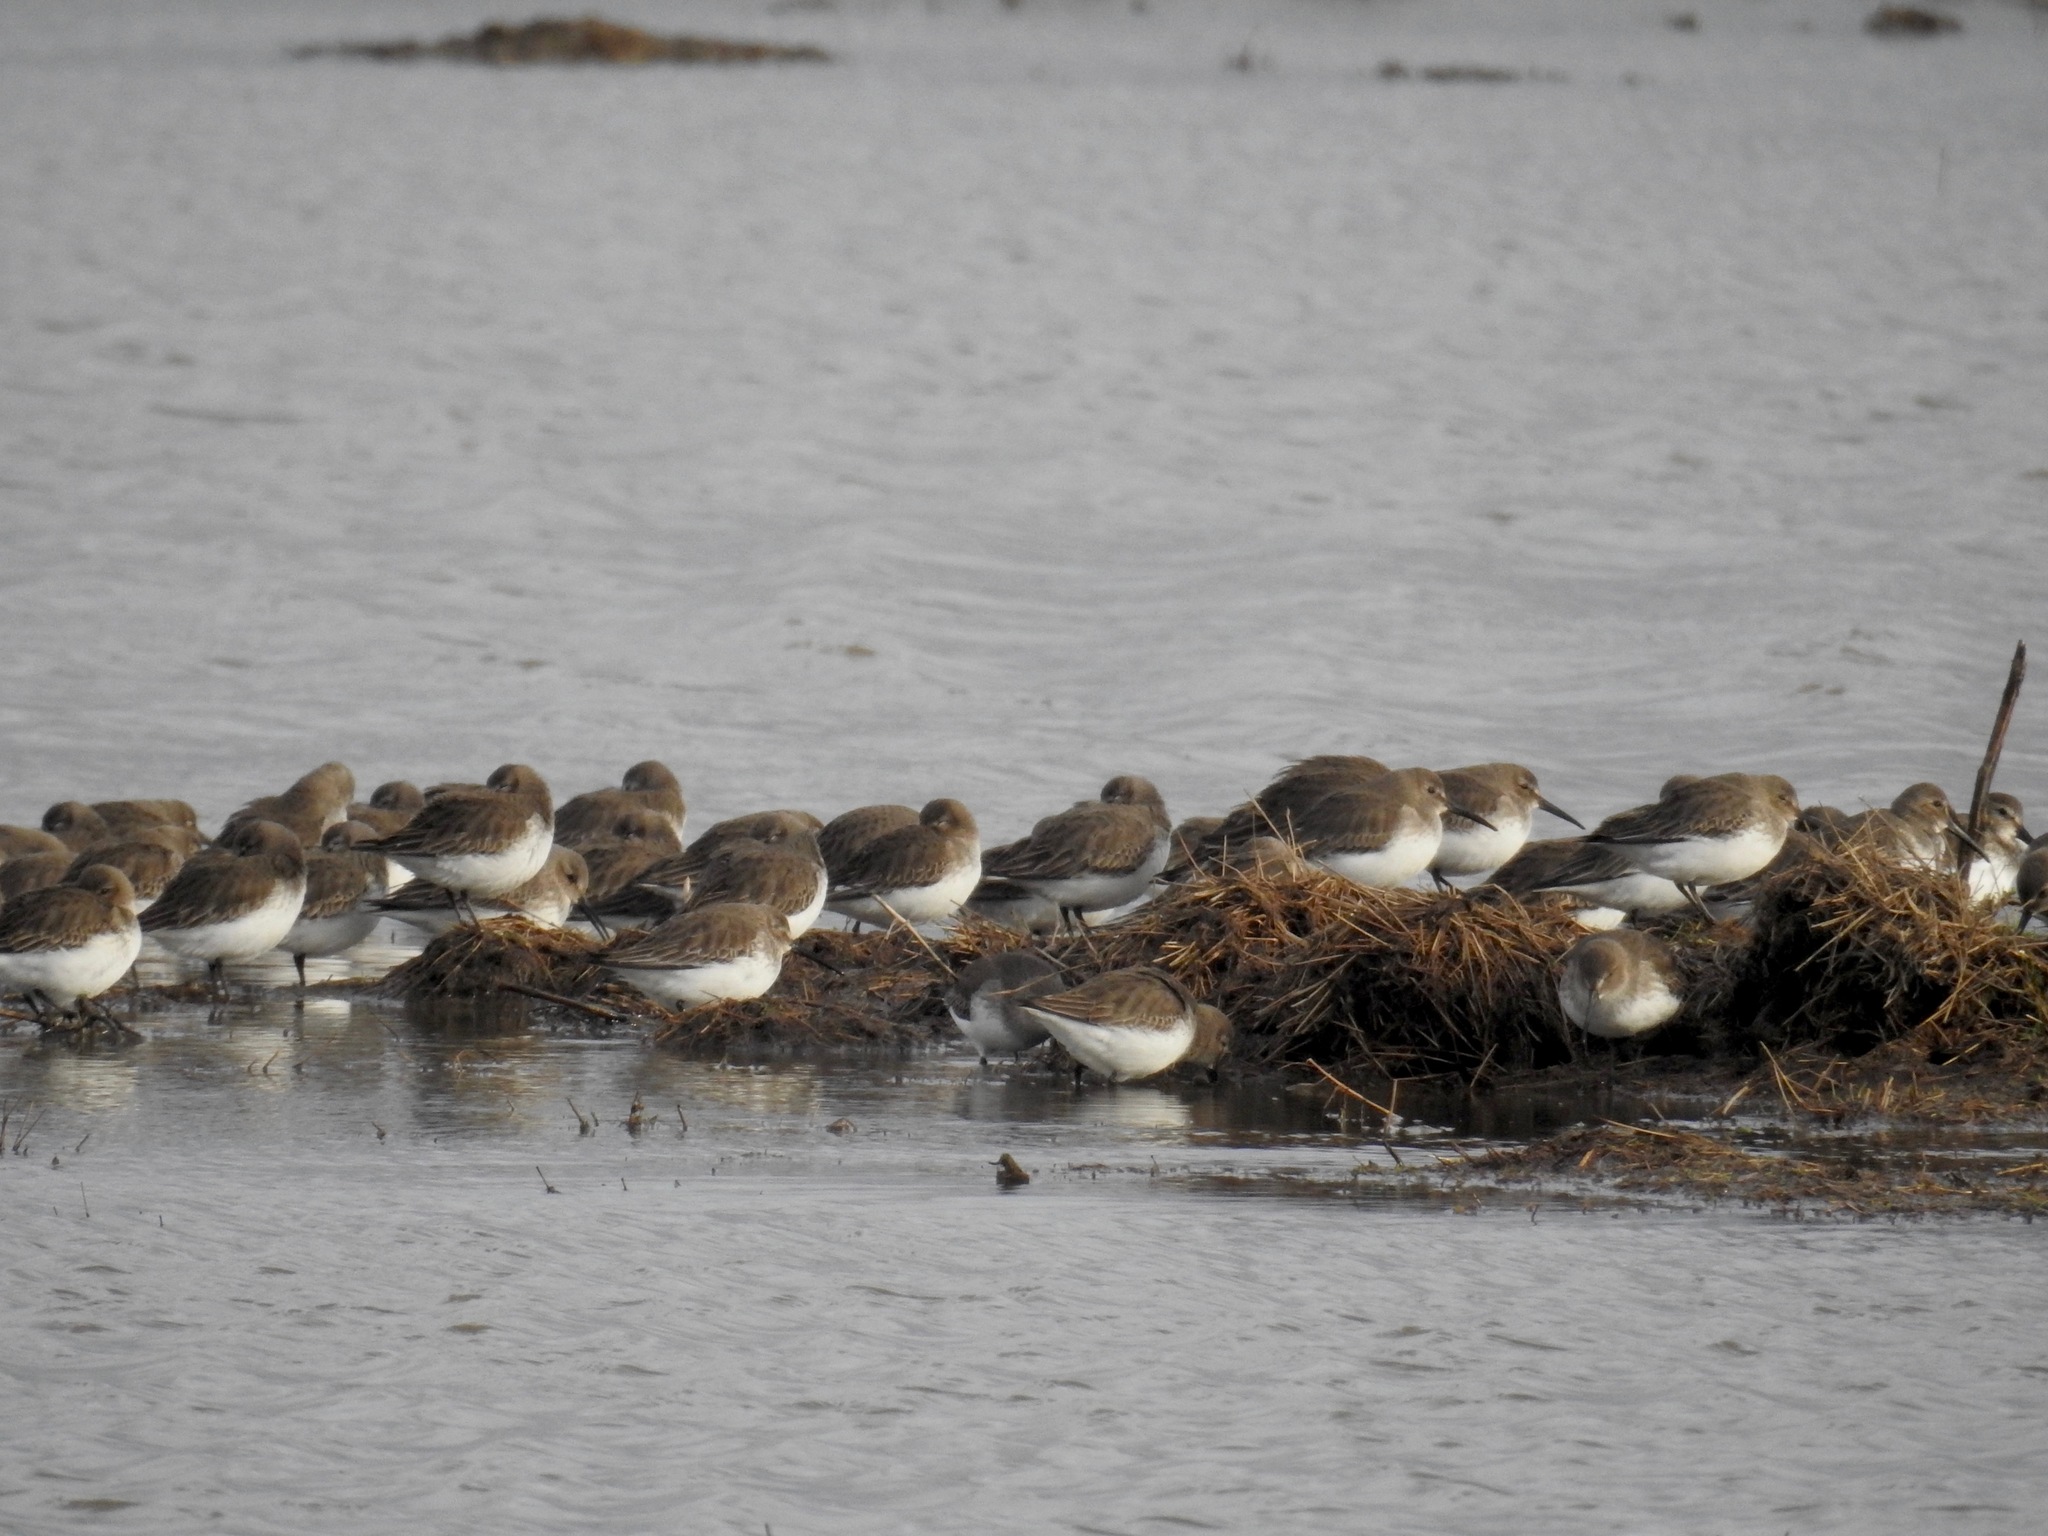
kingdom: Animalia
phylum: Chordata
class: Aves
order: Charadriiformes
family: Scolopacidae
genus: Calidris
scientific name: Calidris alpina
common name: Dunlin
